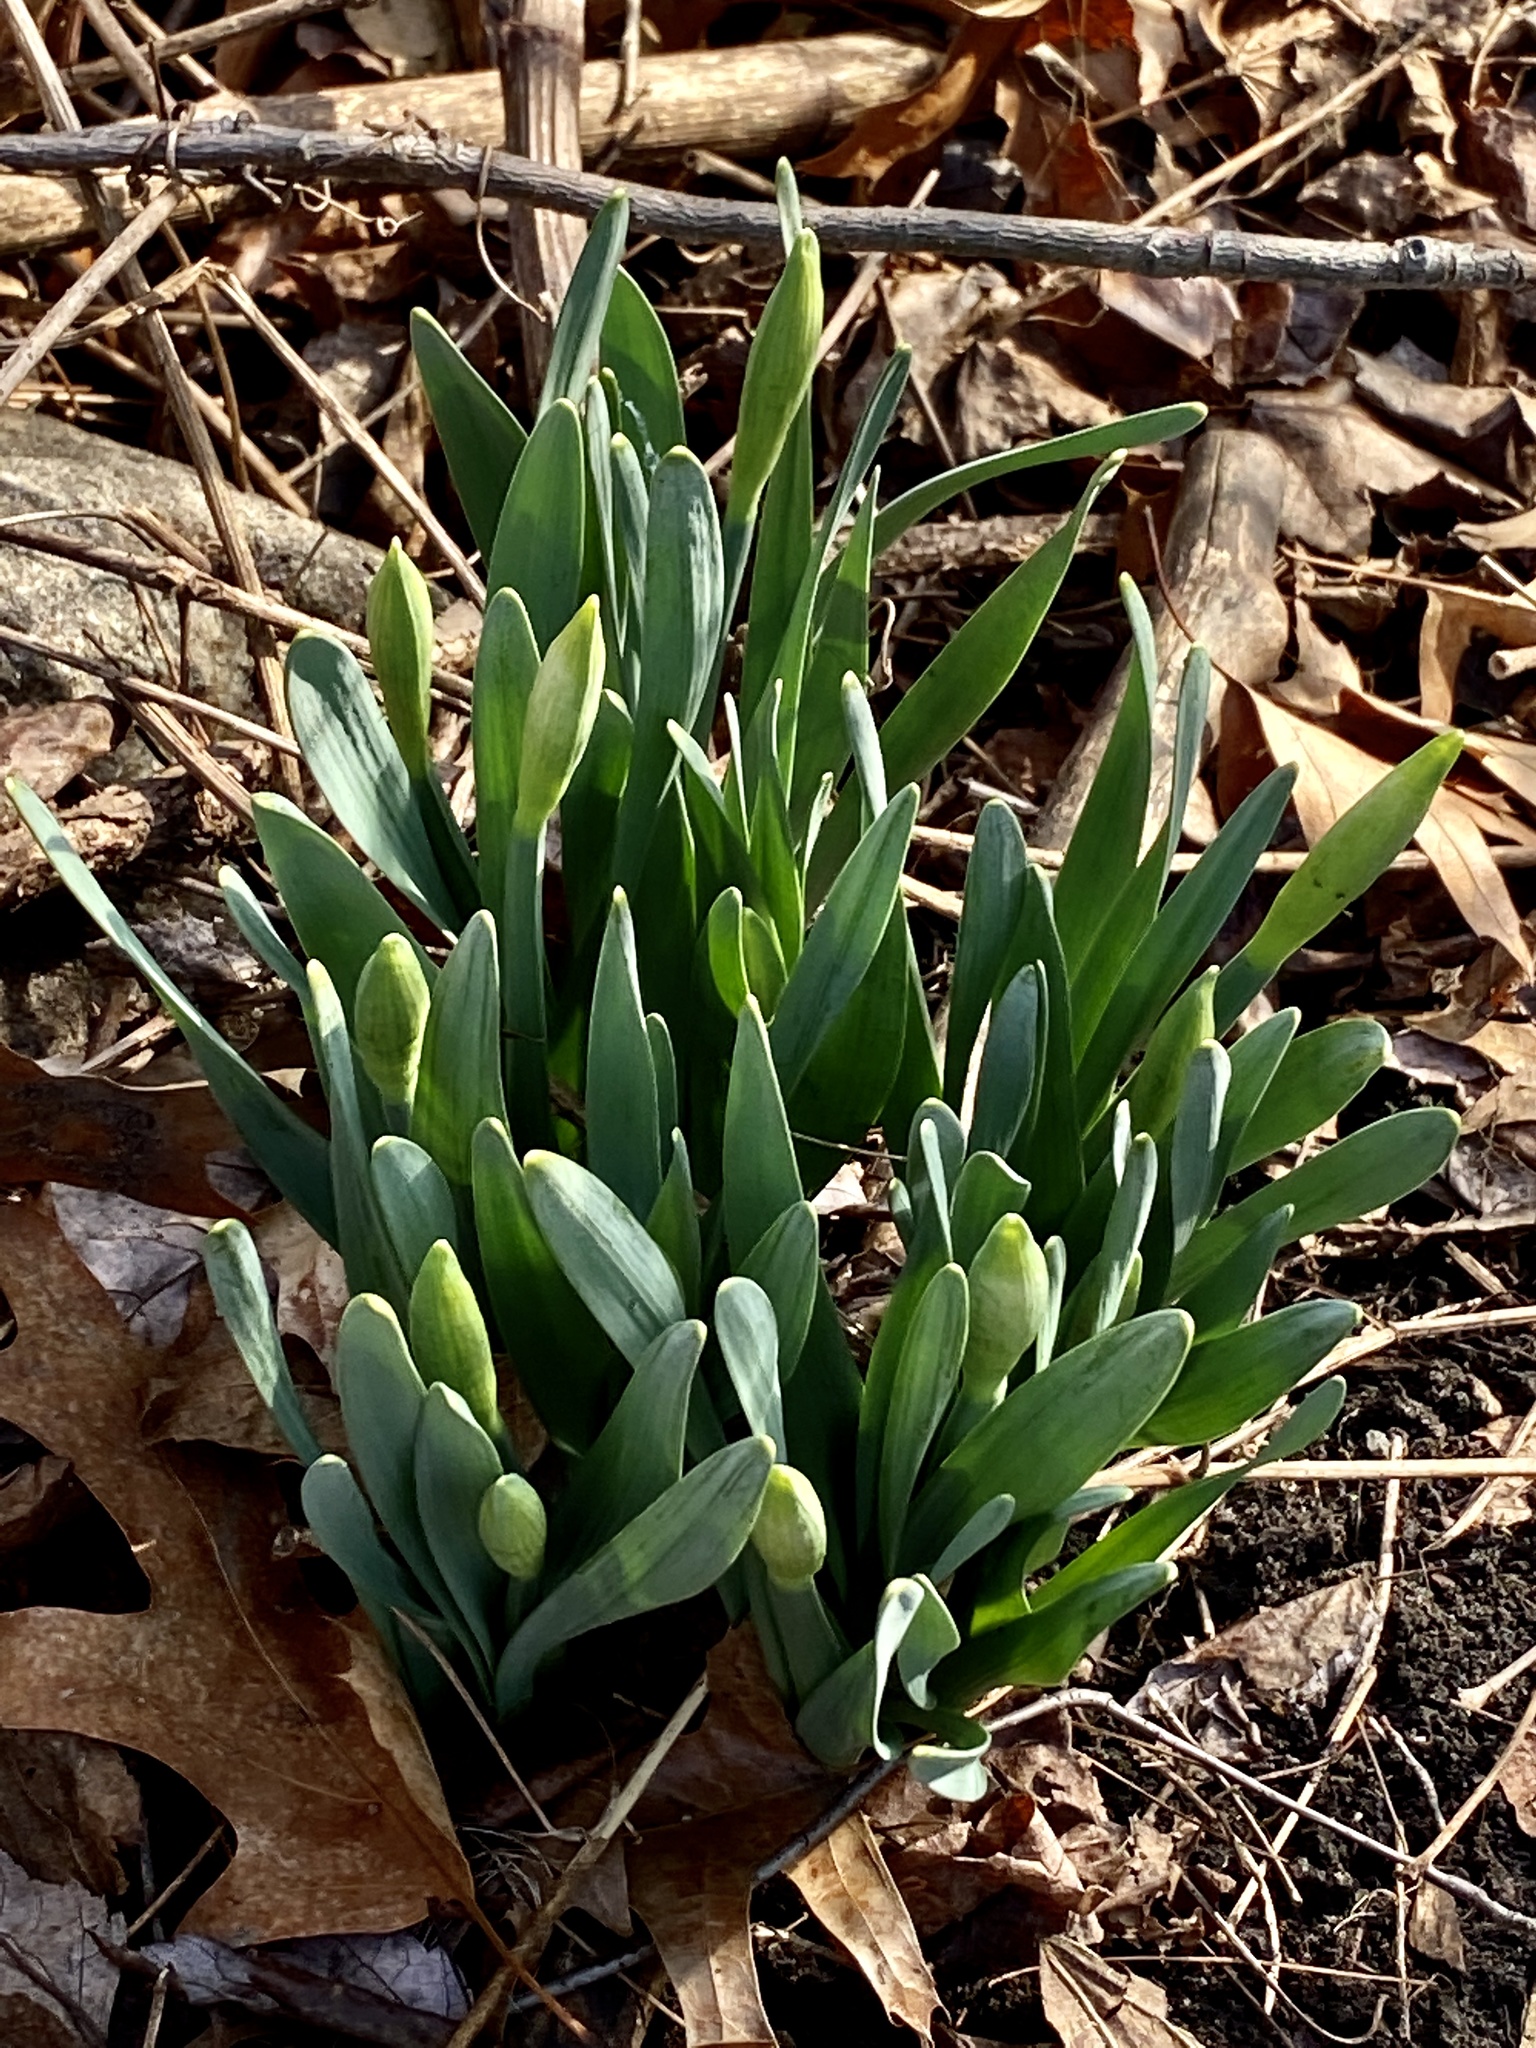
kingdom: Plantae
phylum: Tracheophyta
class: Liliopsida
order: Asparagales
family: Amaryllidaceae
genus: Narcissus
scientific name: Narcissus
